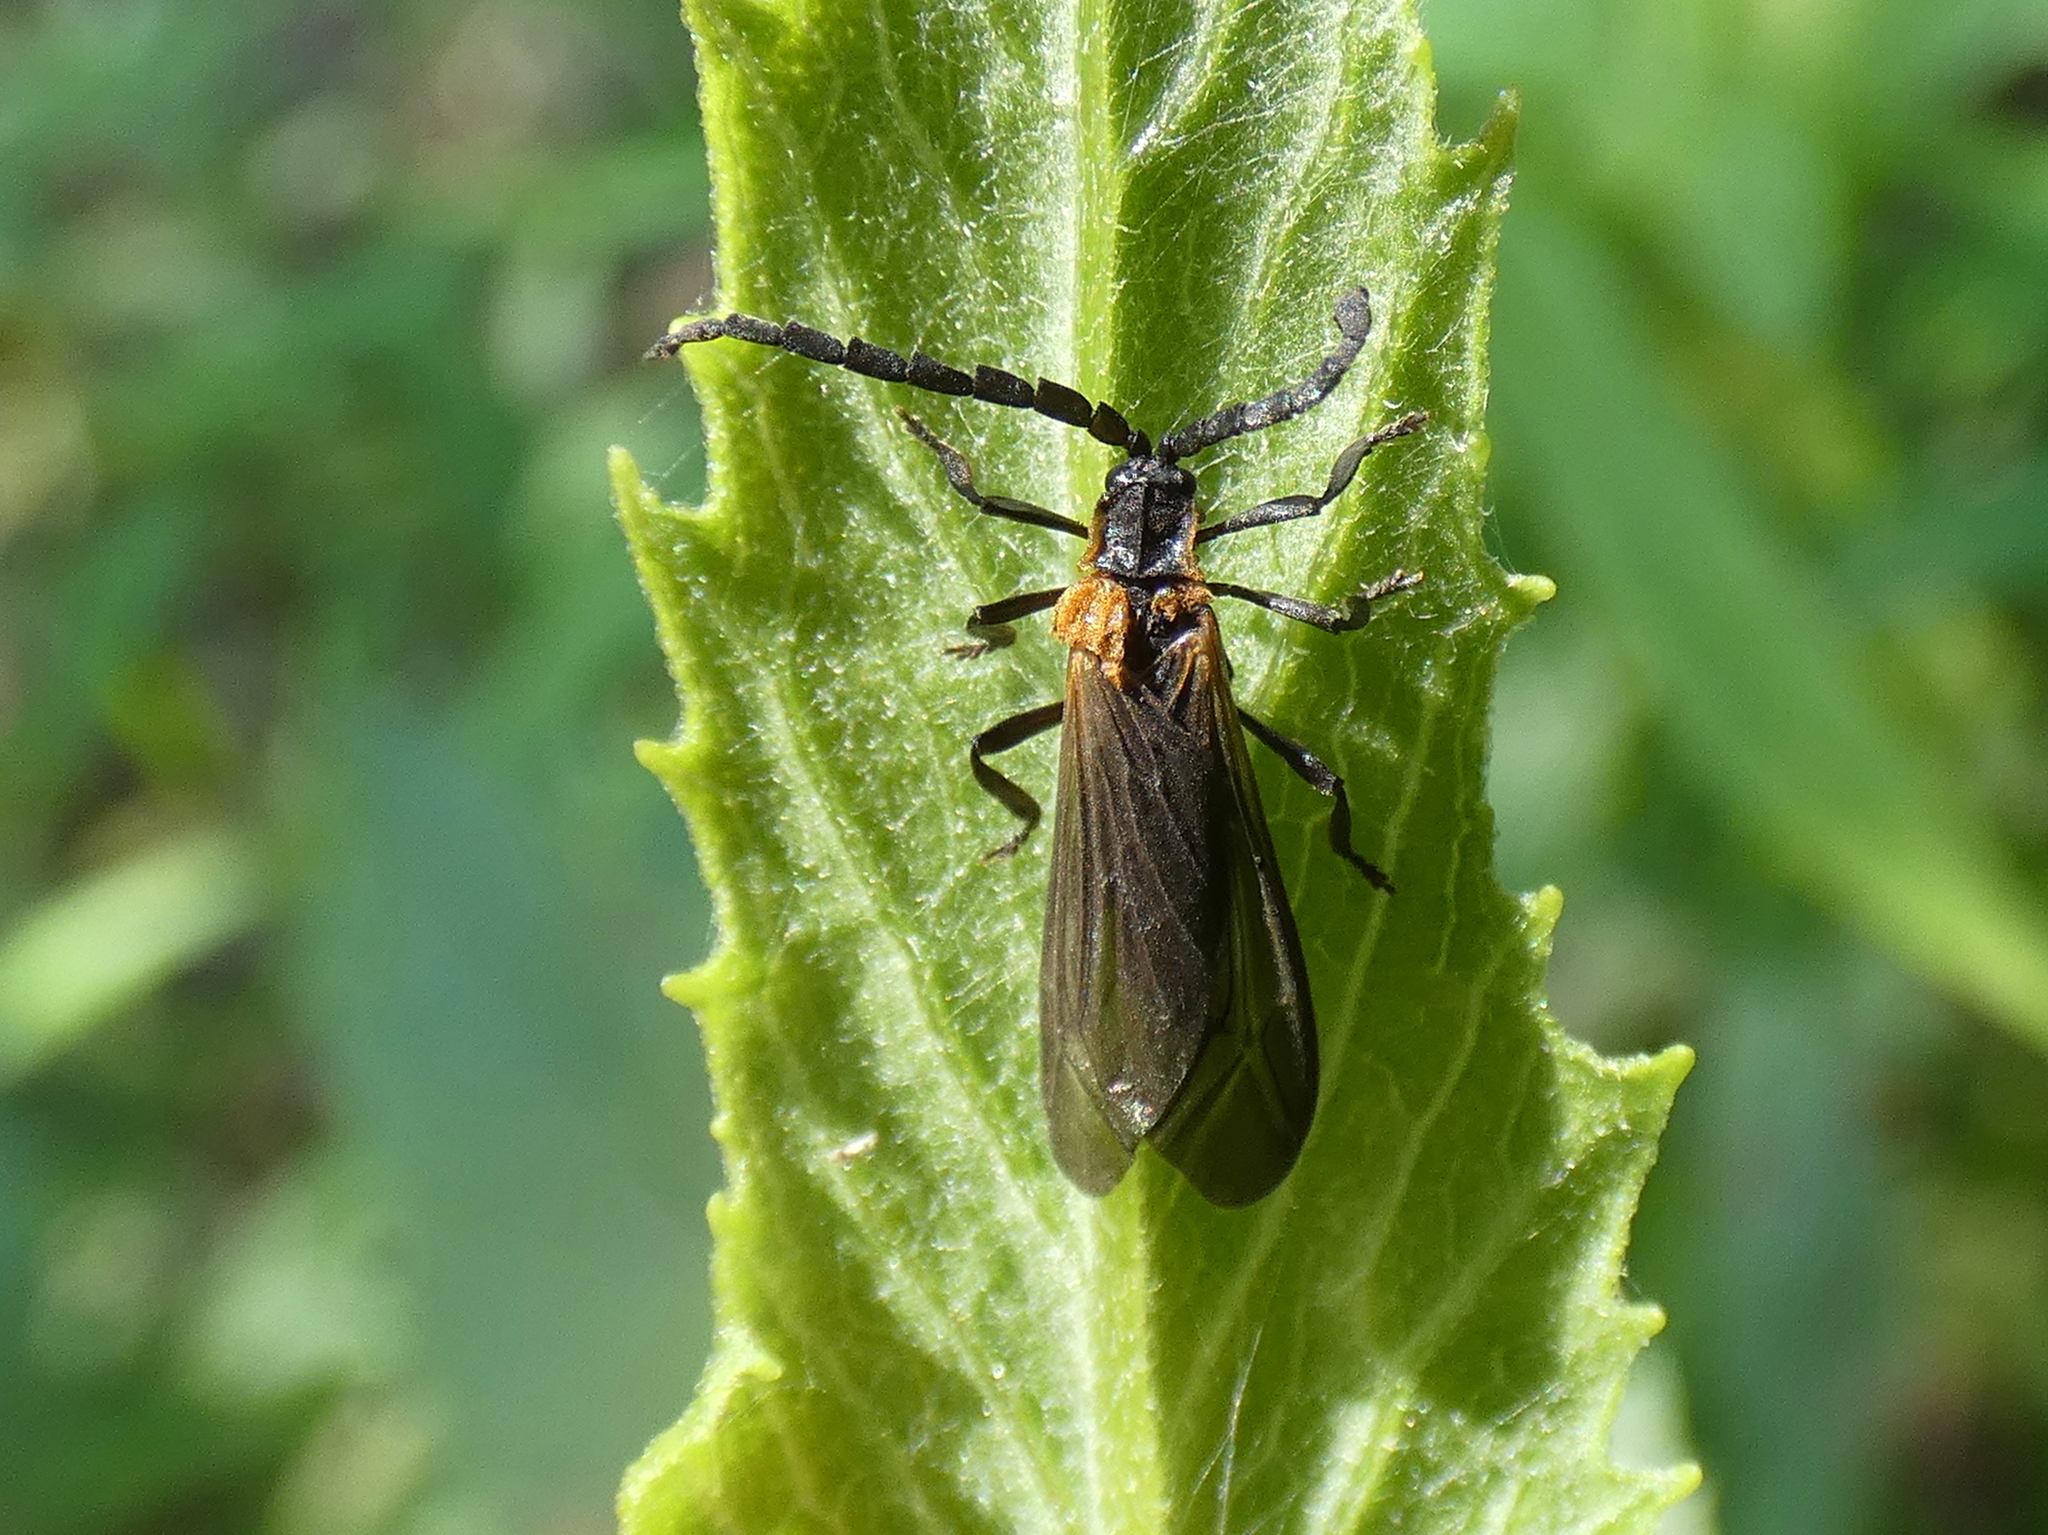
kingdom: Animalia
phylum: Arthropoda
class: Insecta
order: Coleoptera
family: Lycidae
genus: Leptoceletes
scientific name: Leptoceletes basalis
